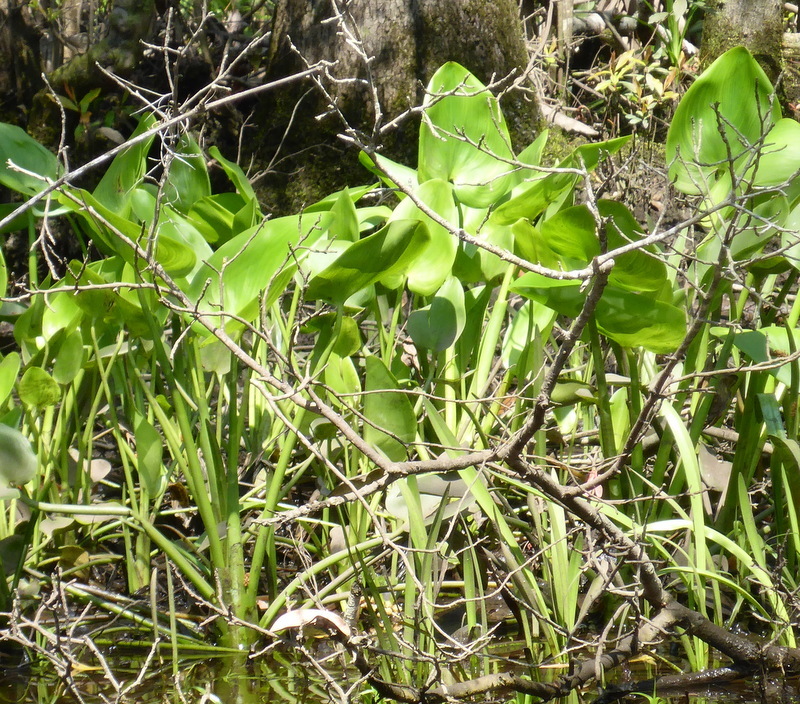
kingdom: Plantae
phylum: Tracheophyta
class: Liliopsida
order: Commelinales
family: Pontederiaceae
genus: Pontederia
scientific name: Pontederia cordata
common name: Pickerelweed
